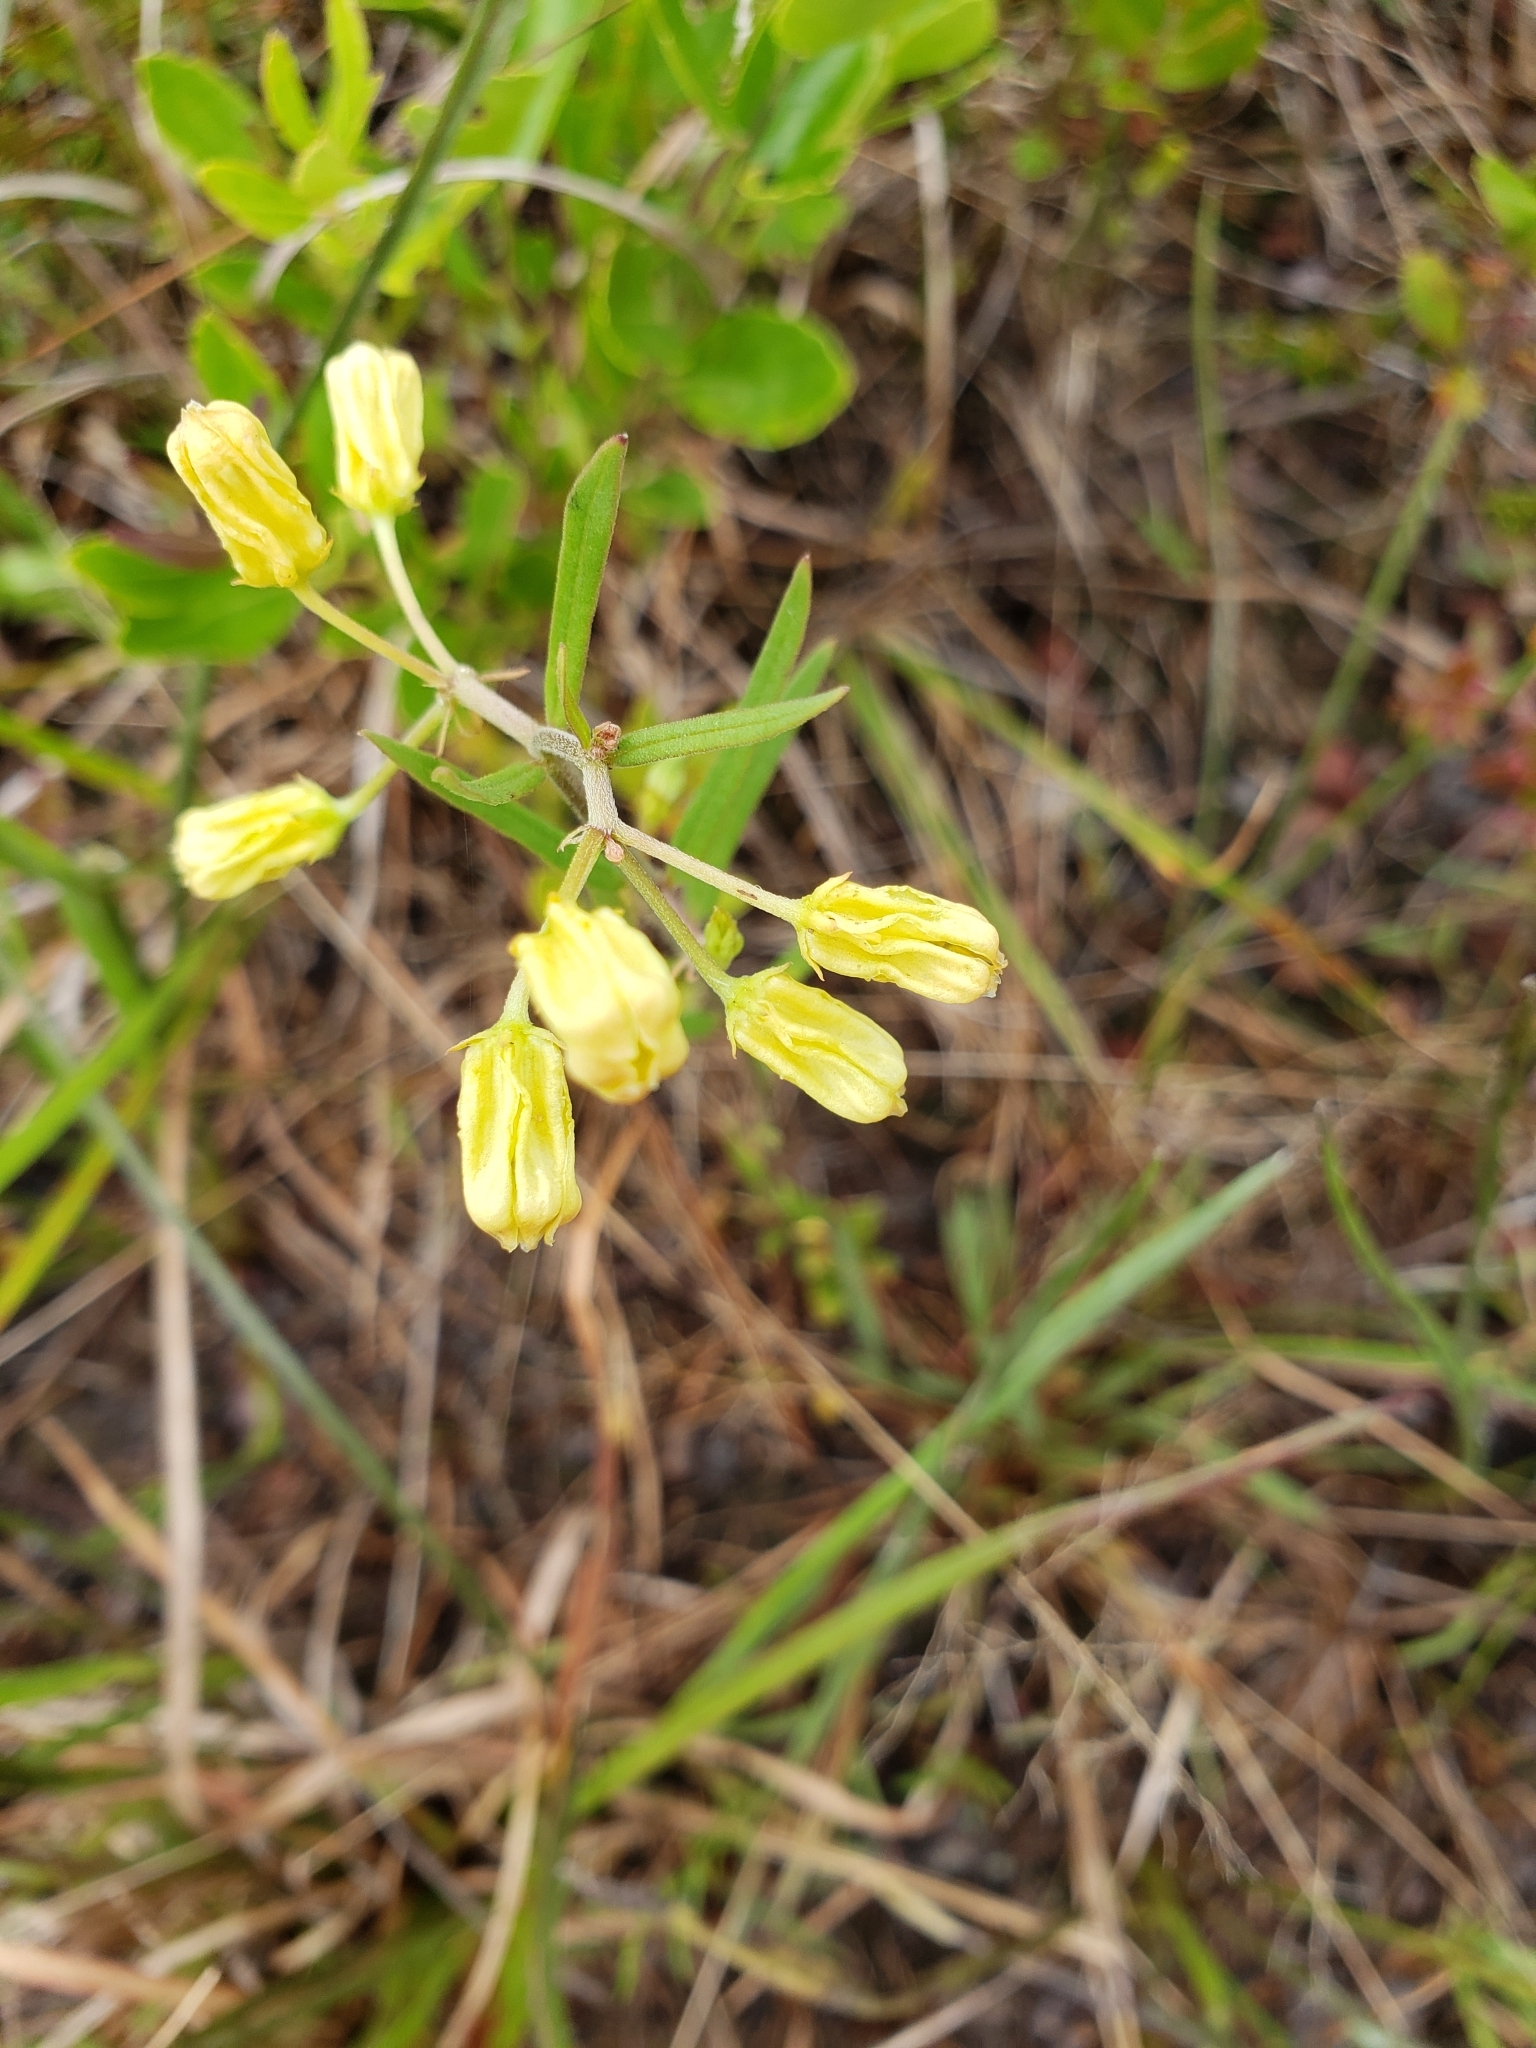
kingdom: Plantae
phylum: Tracheophyta
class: Magnoliopsida
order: Gentianales
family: Apocynaceae
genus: Asclepias
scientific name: Asclepias pedicellata
